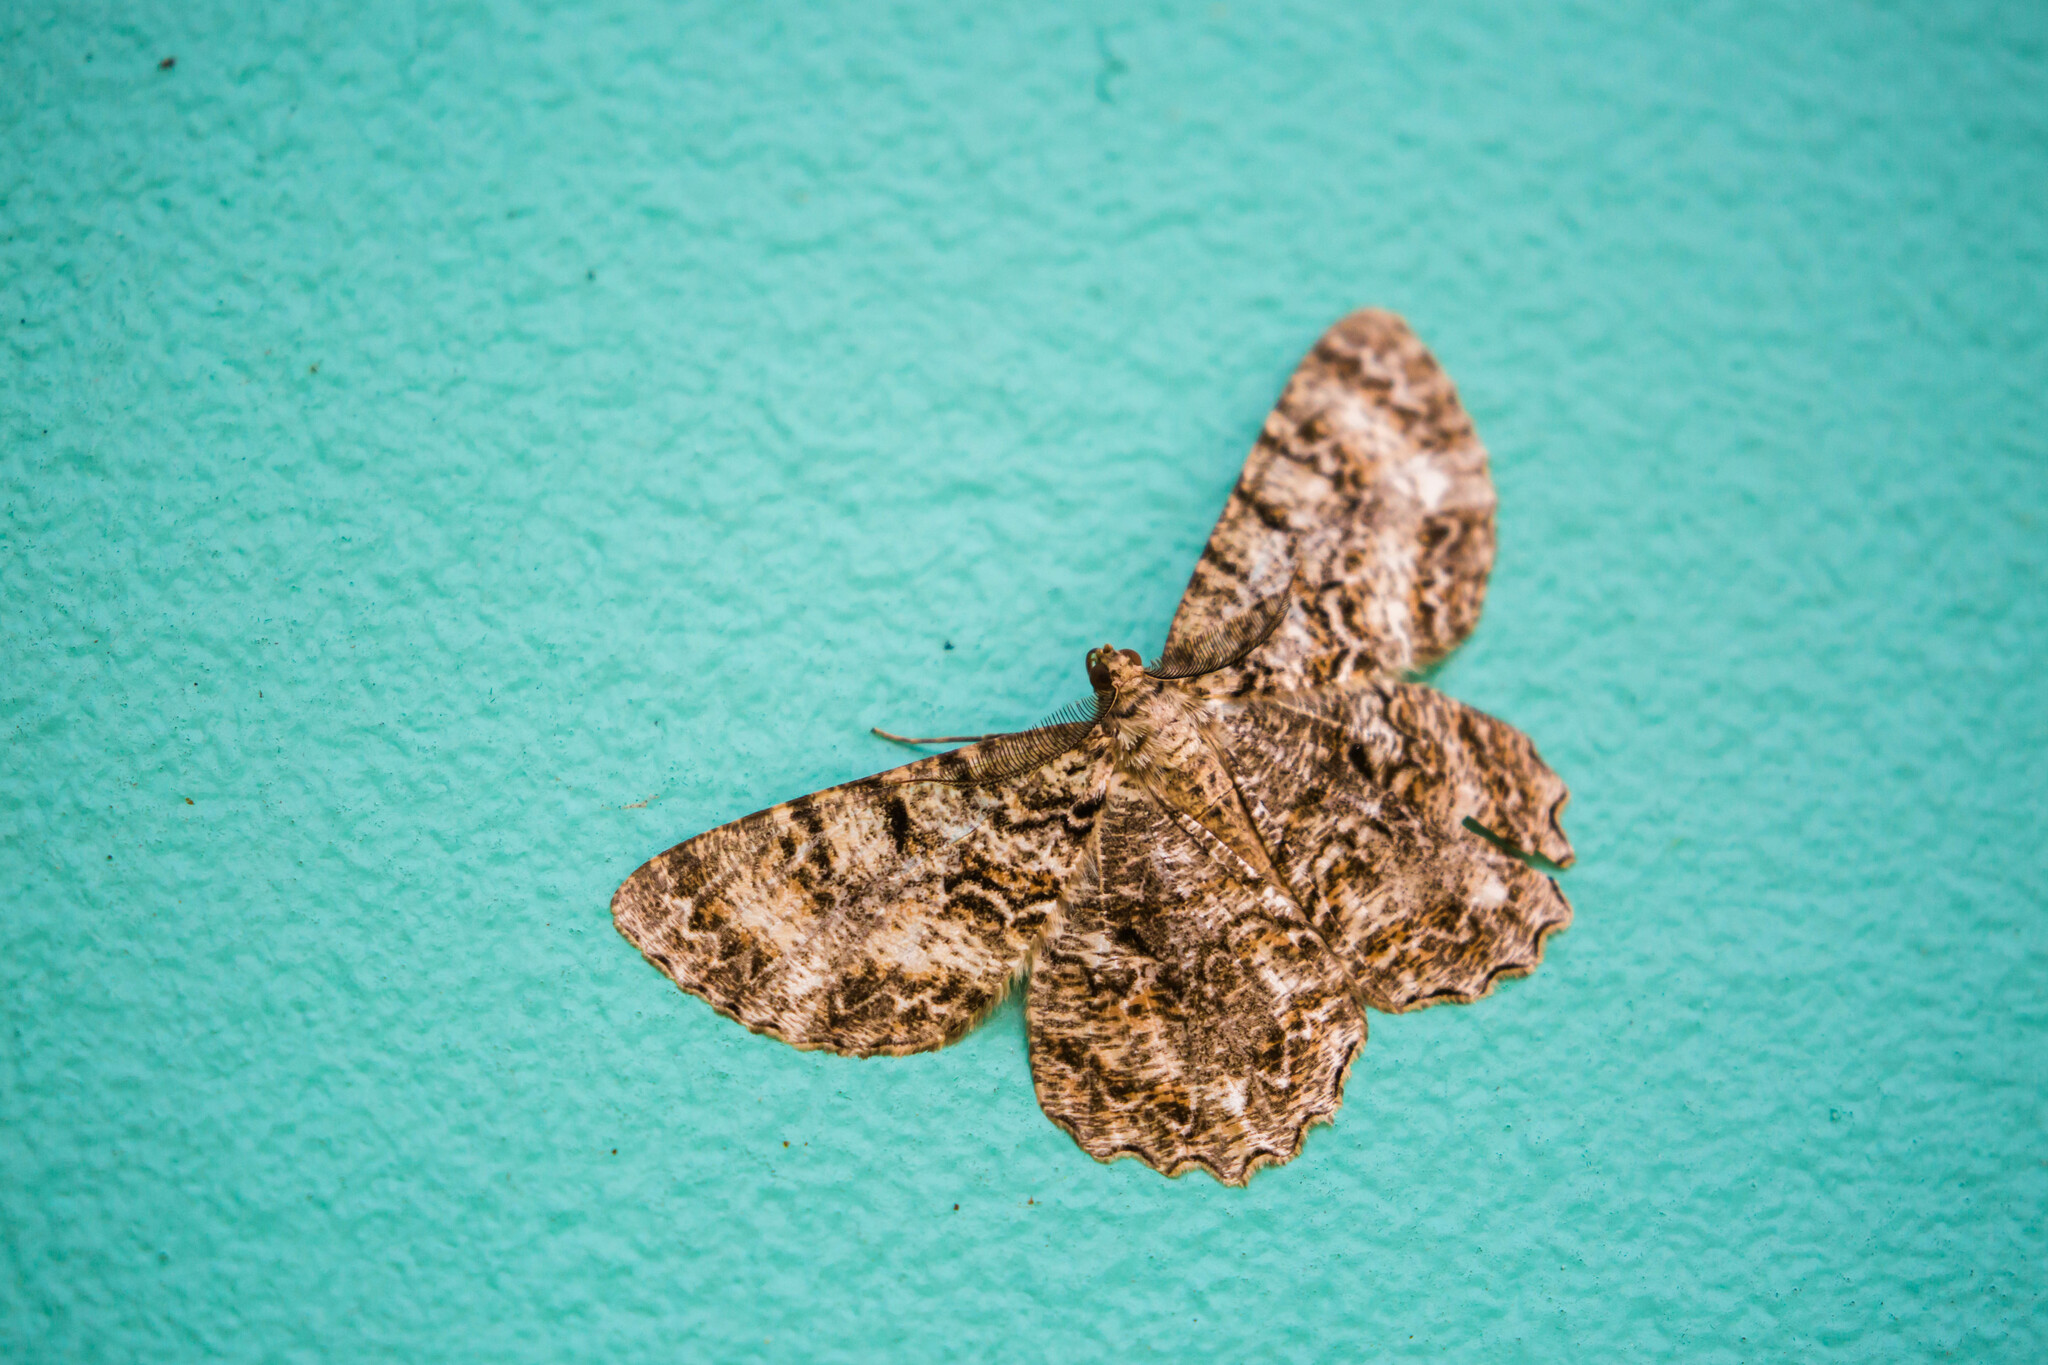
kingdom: Animalia
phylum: Arthropoda
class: Insecta
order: Lepidoptera
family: Geometridae
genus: Epimecis
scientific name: Epimecis hortaria
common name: Tulip-tree beauty
